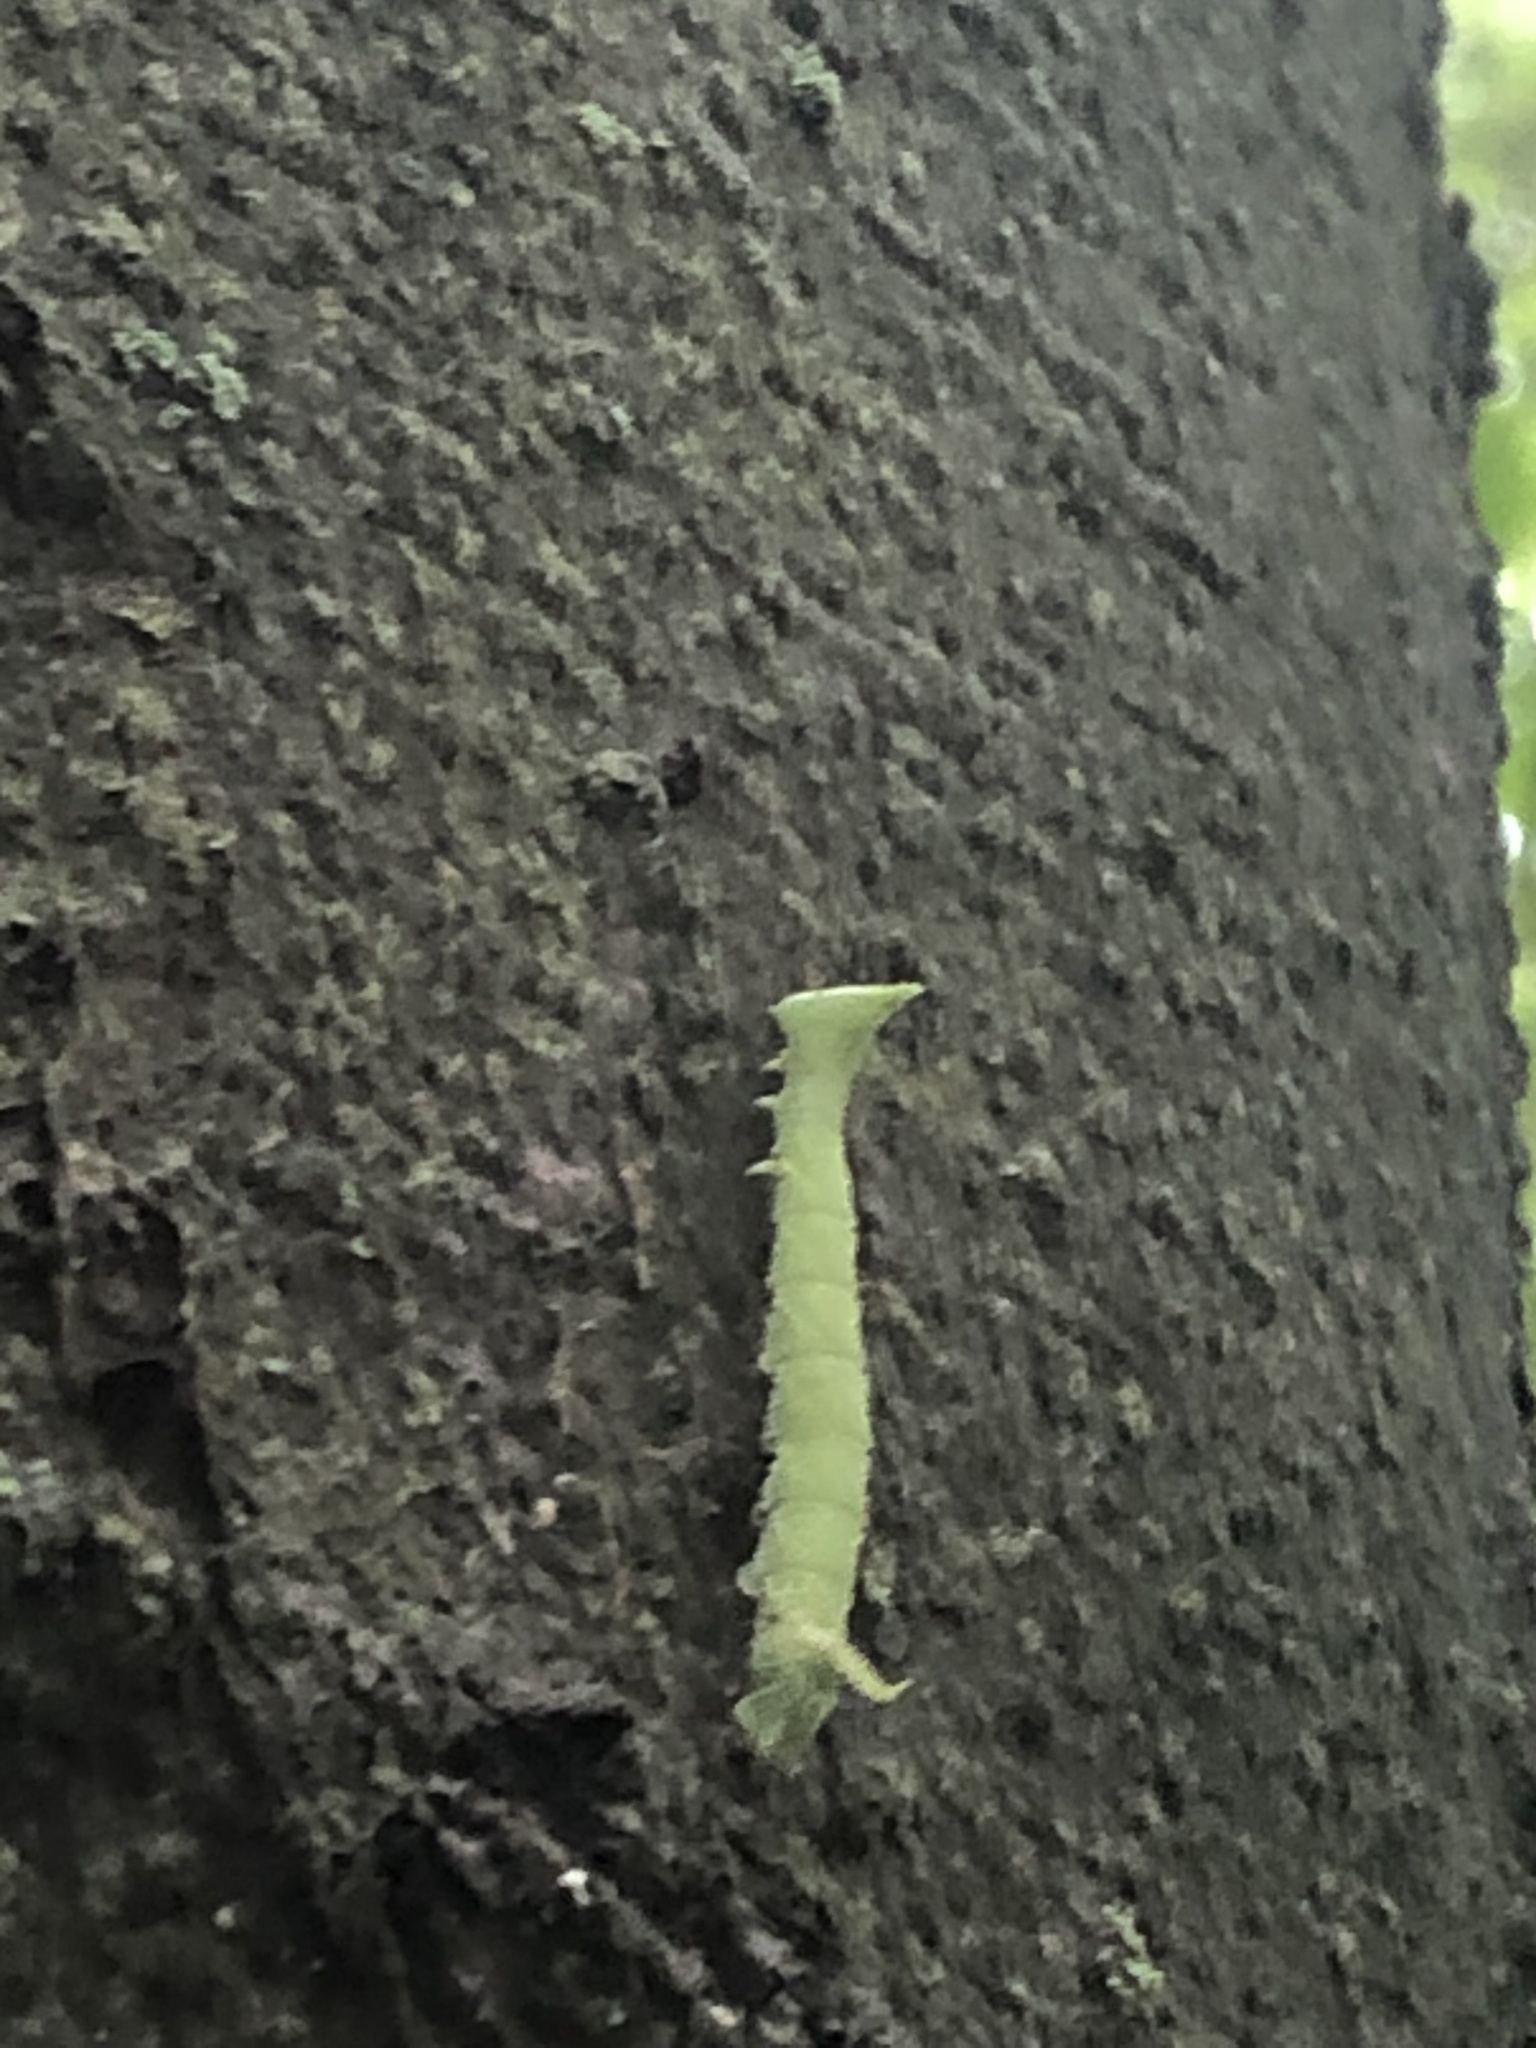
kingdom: Animalia
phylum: Arthropoda
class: Insecta
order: Lepidoptera
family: Sphingidae
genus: Amorpha
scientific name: Amorpha juglandis
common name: Walnut sphinx
